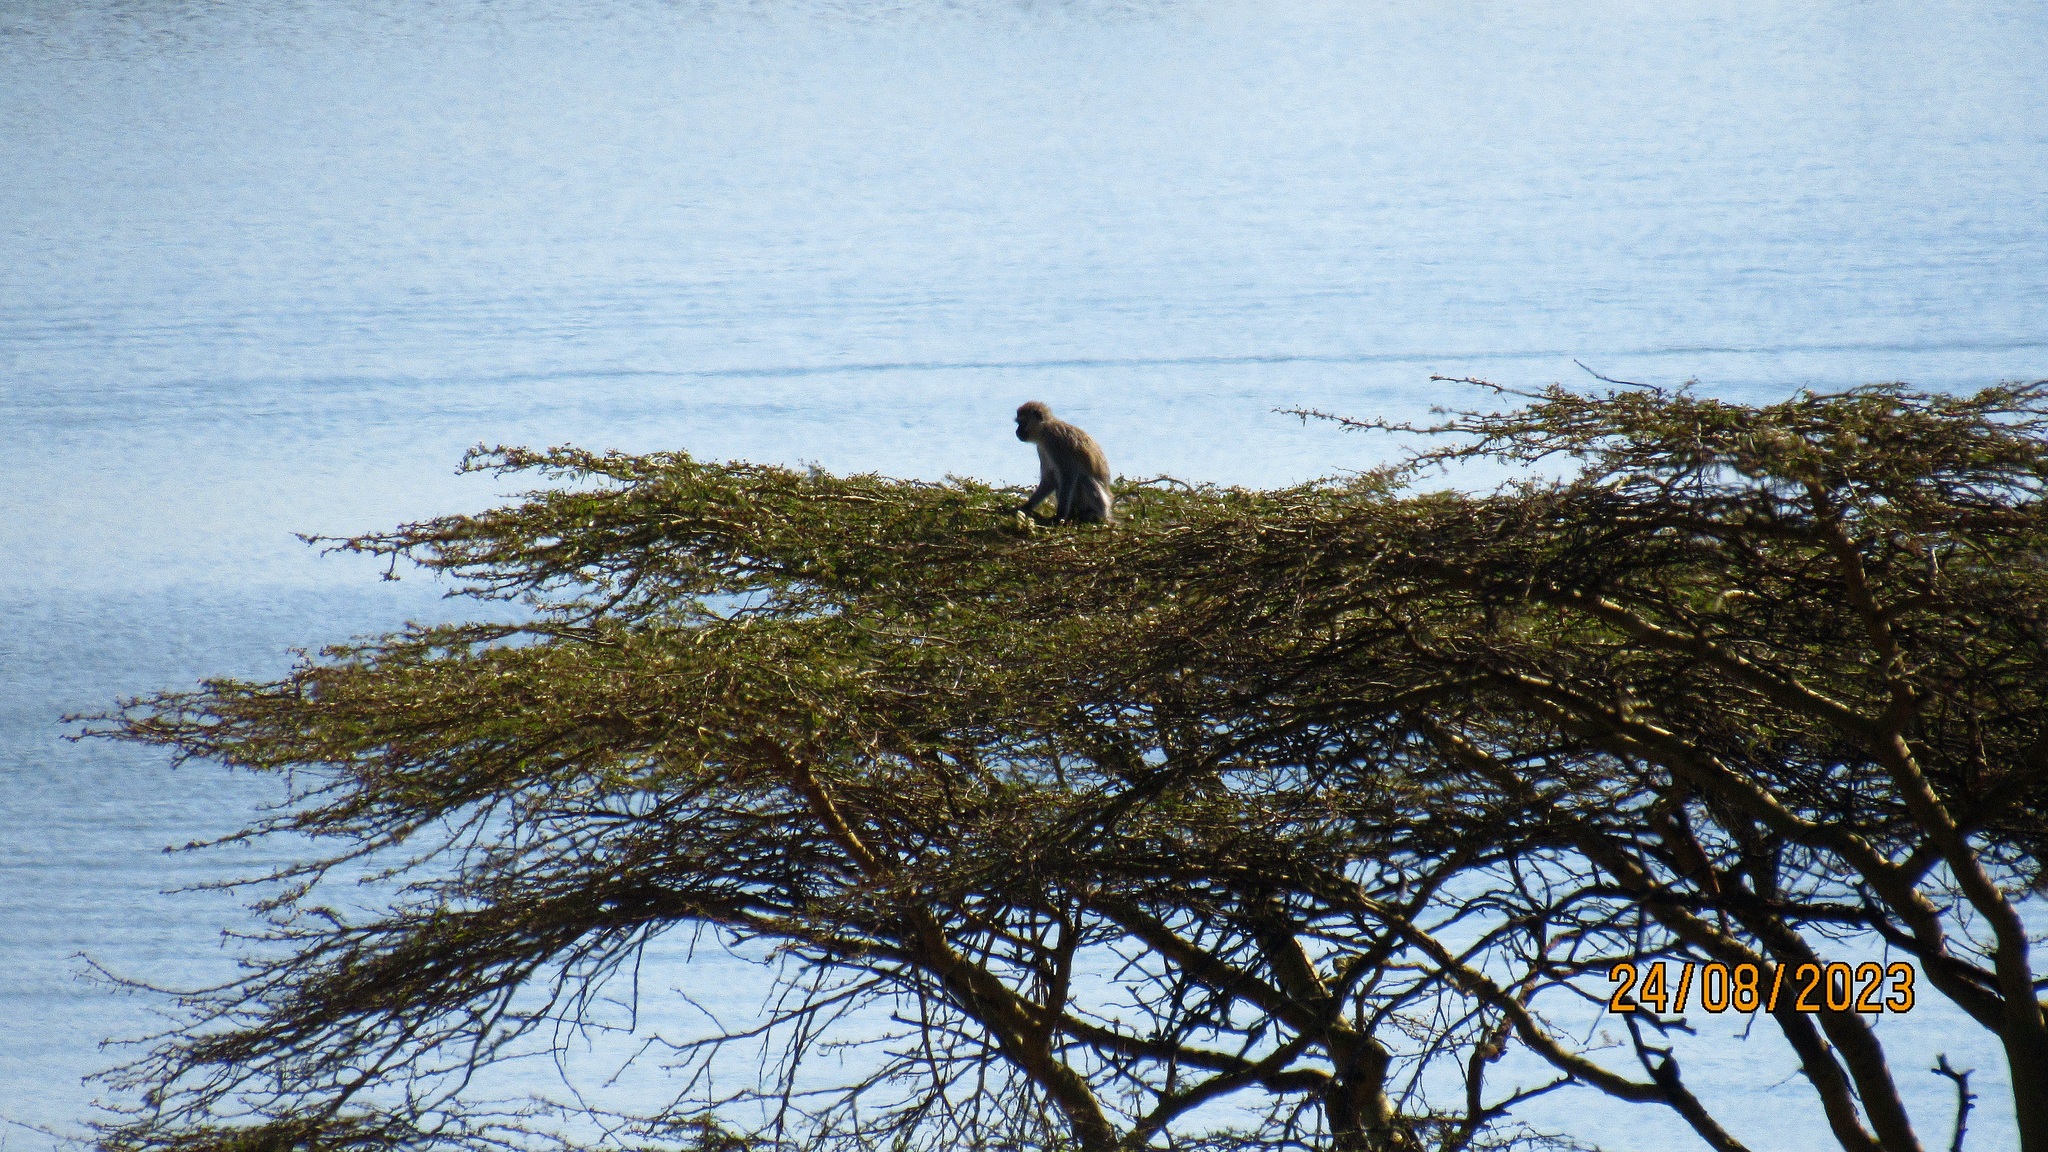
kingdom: Animalia
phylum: Chordata
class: Mammalia
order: Primates
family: Cercopithecidae
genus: Chlorocebus
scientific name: Chlorocebus pygerythrus
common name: Vervet monkey
